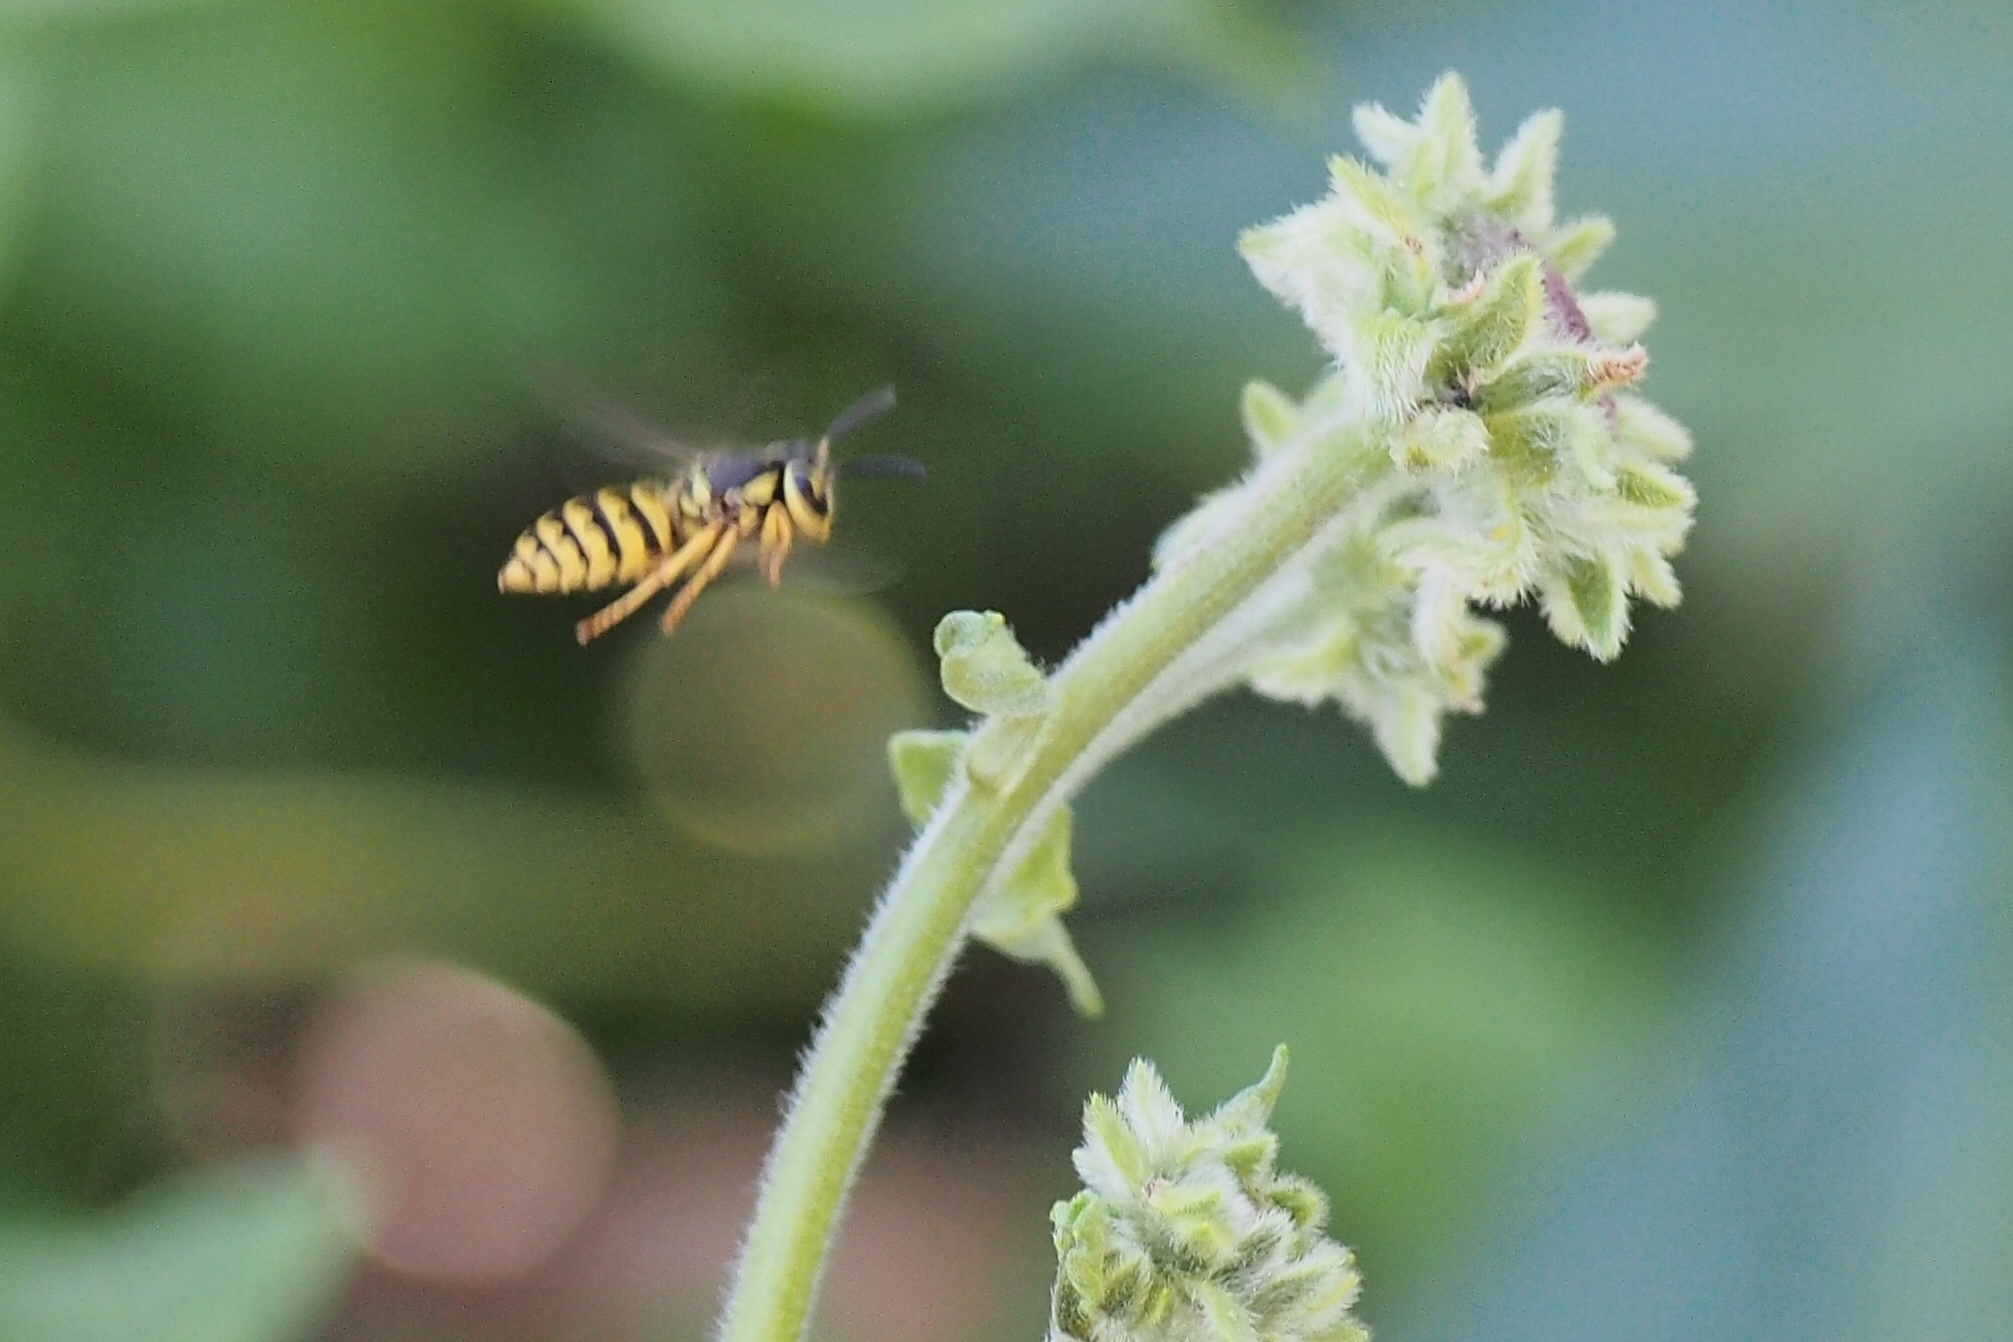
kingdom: Animalia
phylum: Arthropoda
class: Insecta
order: Hymenoptera
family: Vespidae
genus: Vespula
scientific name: Vespula pensylvanica
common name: Western yellowjacket
